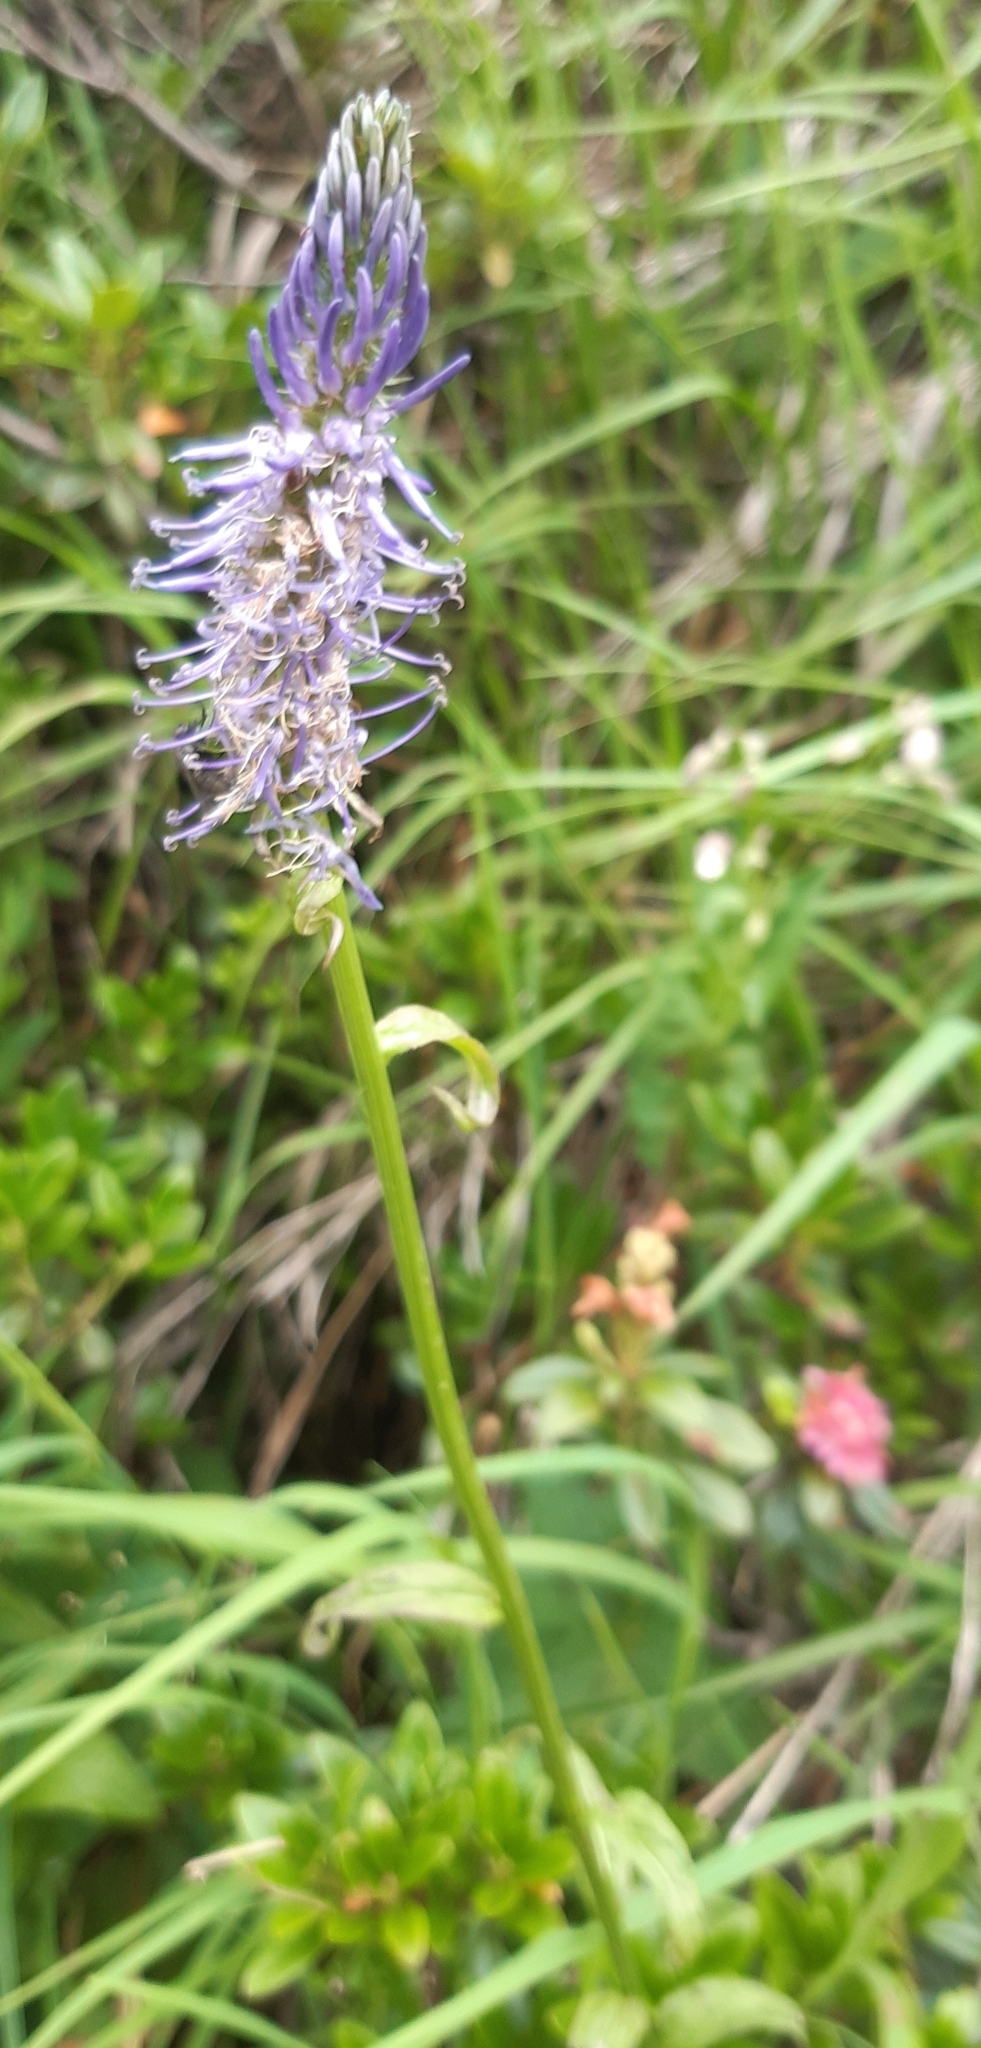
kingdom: Plantae
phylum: Tracheophyta
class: Magnoliopsida
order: Asterales
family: Campanulaceae
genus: Phyteuma
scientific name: Phyteuma betonicifolium
